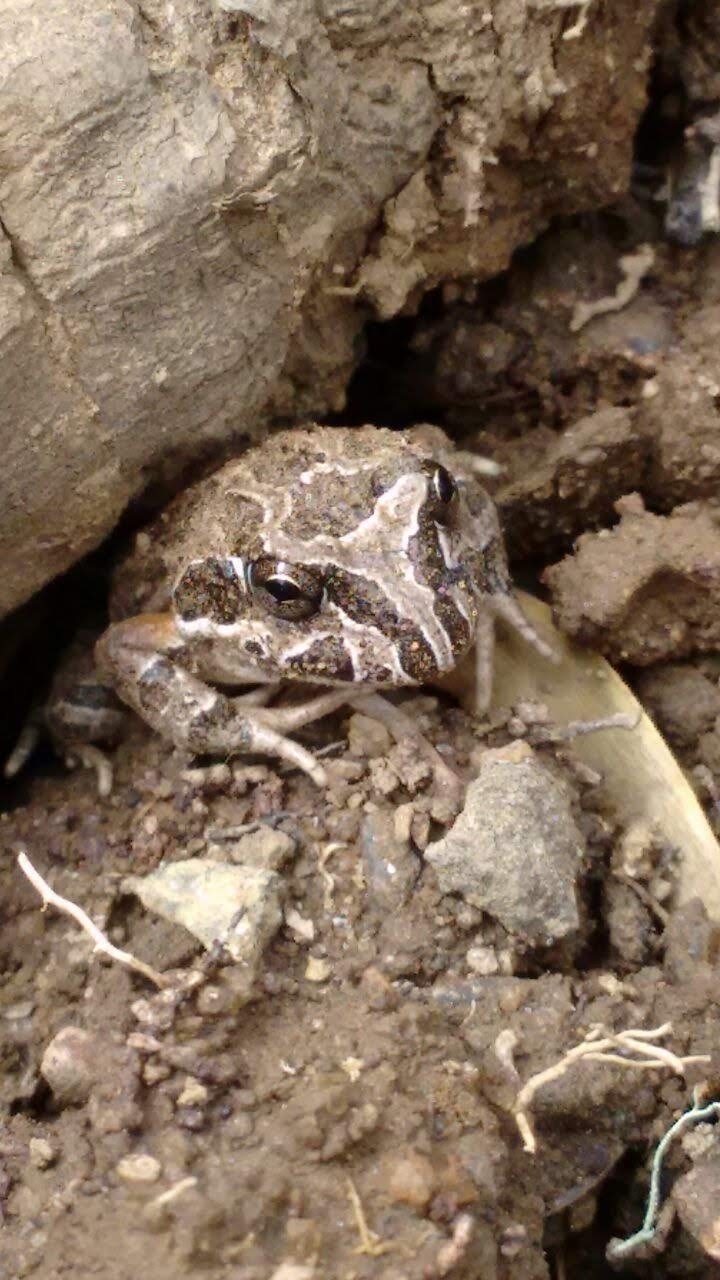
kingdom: Animalia
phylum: Chordata
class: Amphibia
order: Anura
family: Leptodactylidae
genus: Pleurodema
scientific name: Pleurodema thaul
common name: Chile four-eyed frog
